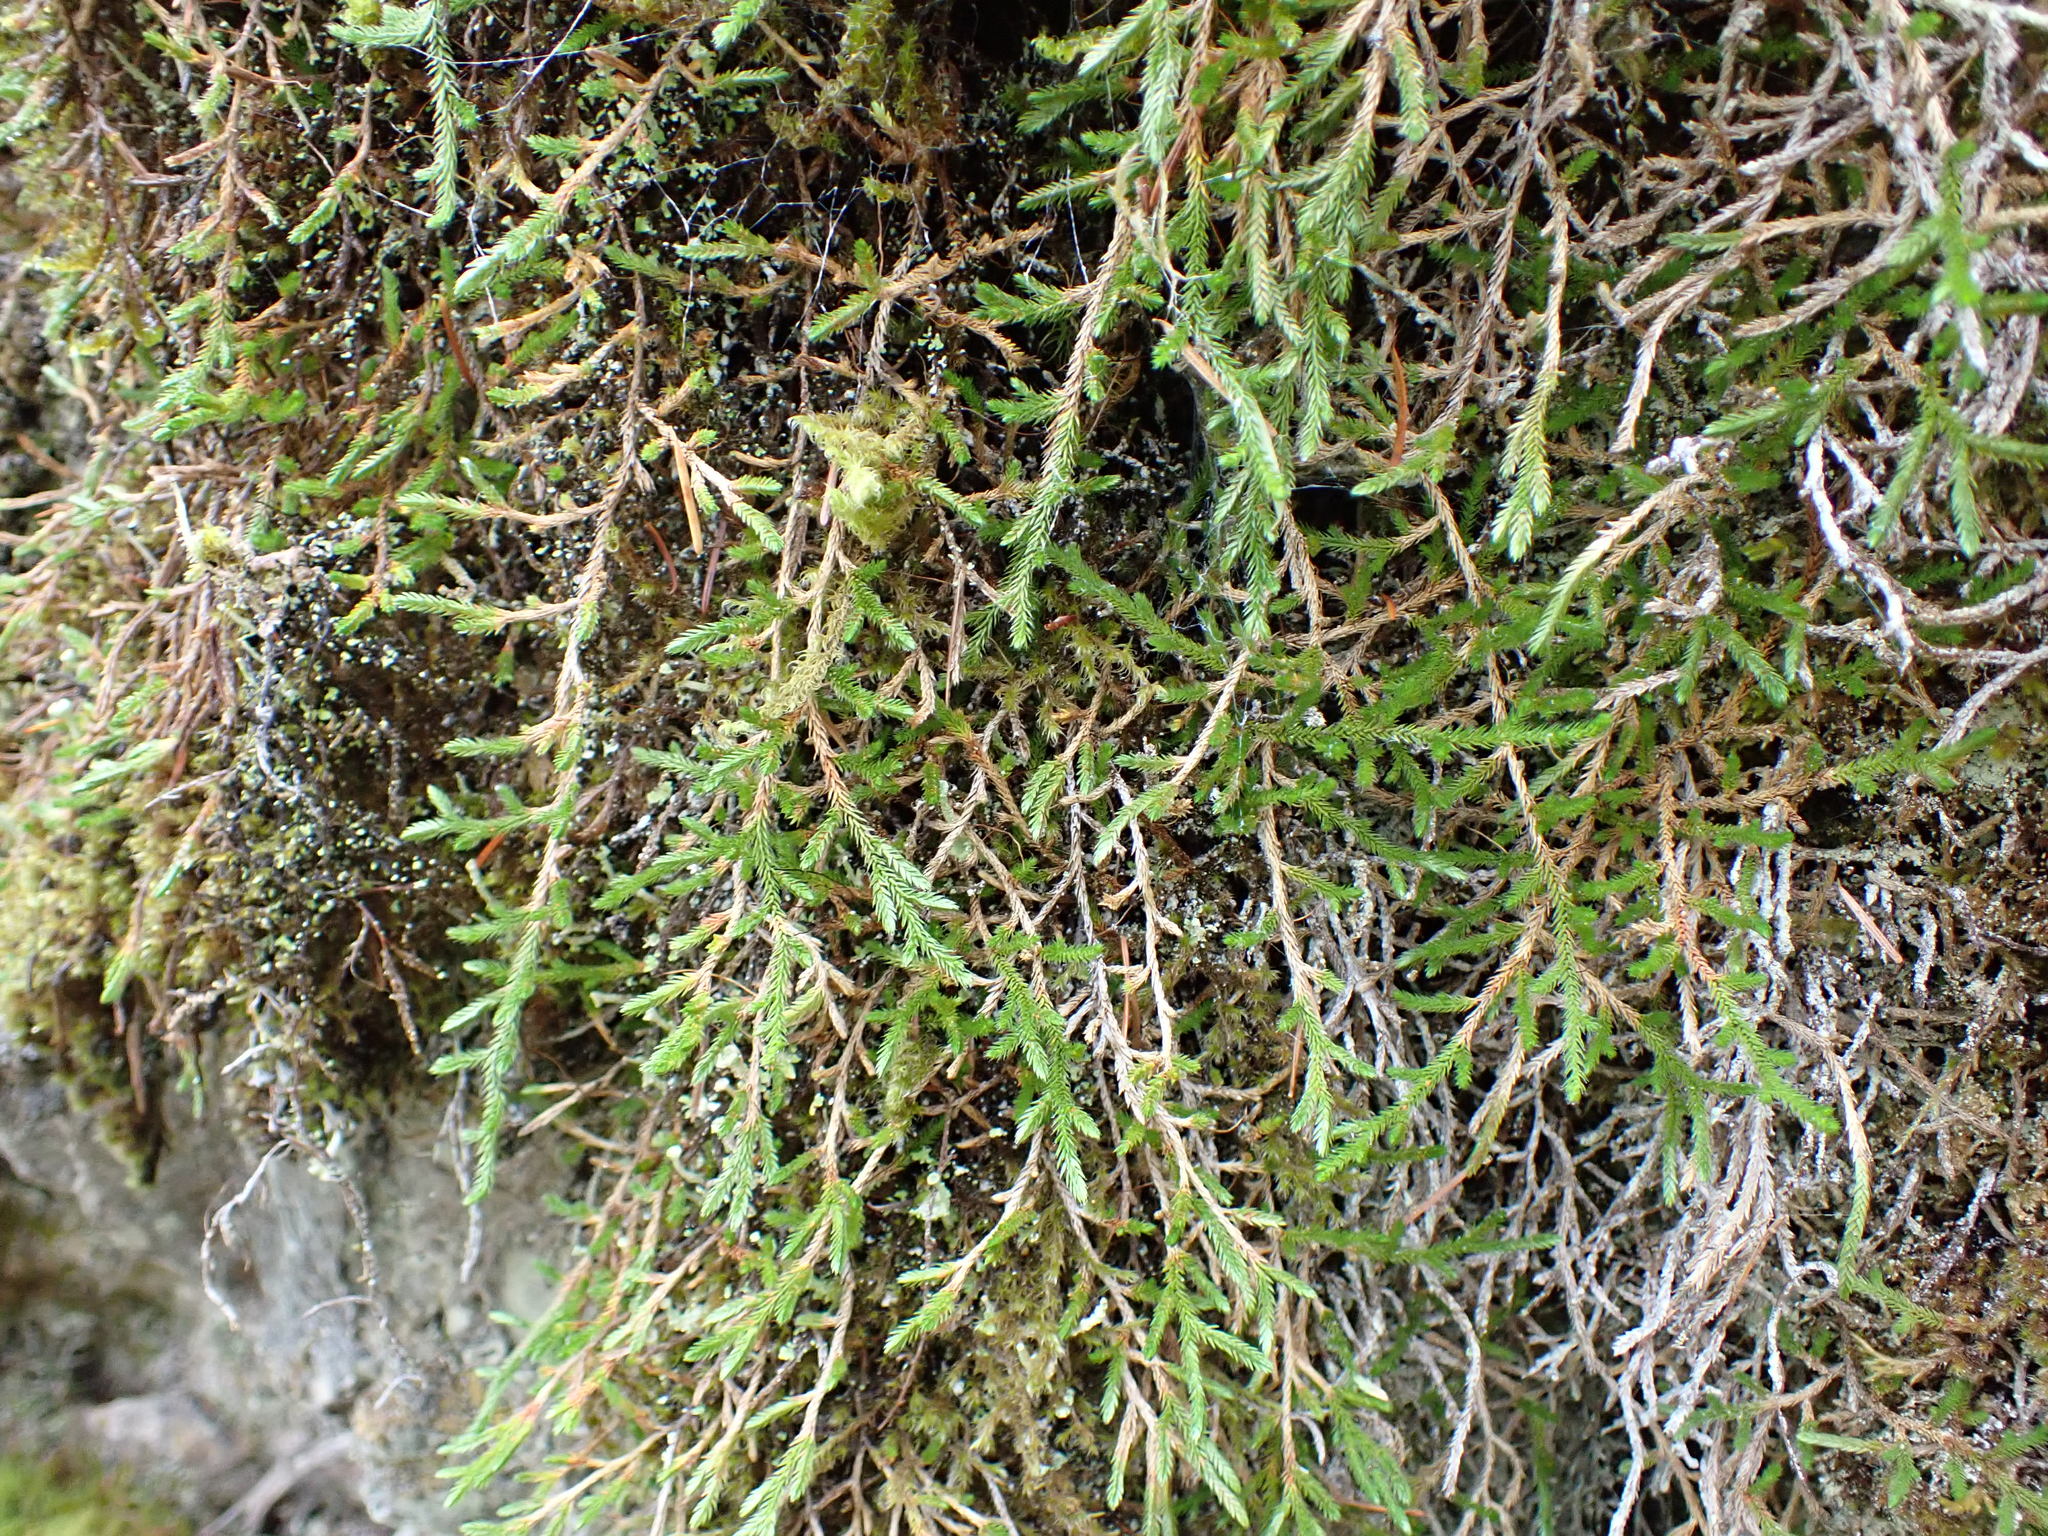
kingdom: Plantae
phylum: Tracheophyta
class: Lycopodiopsida
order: Selaginellales
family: Selaginellaceae
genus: Selaginella
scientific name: Selaginella wallacei
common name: Wallace's selaginella
